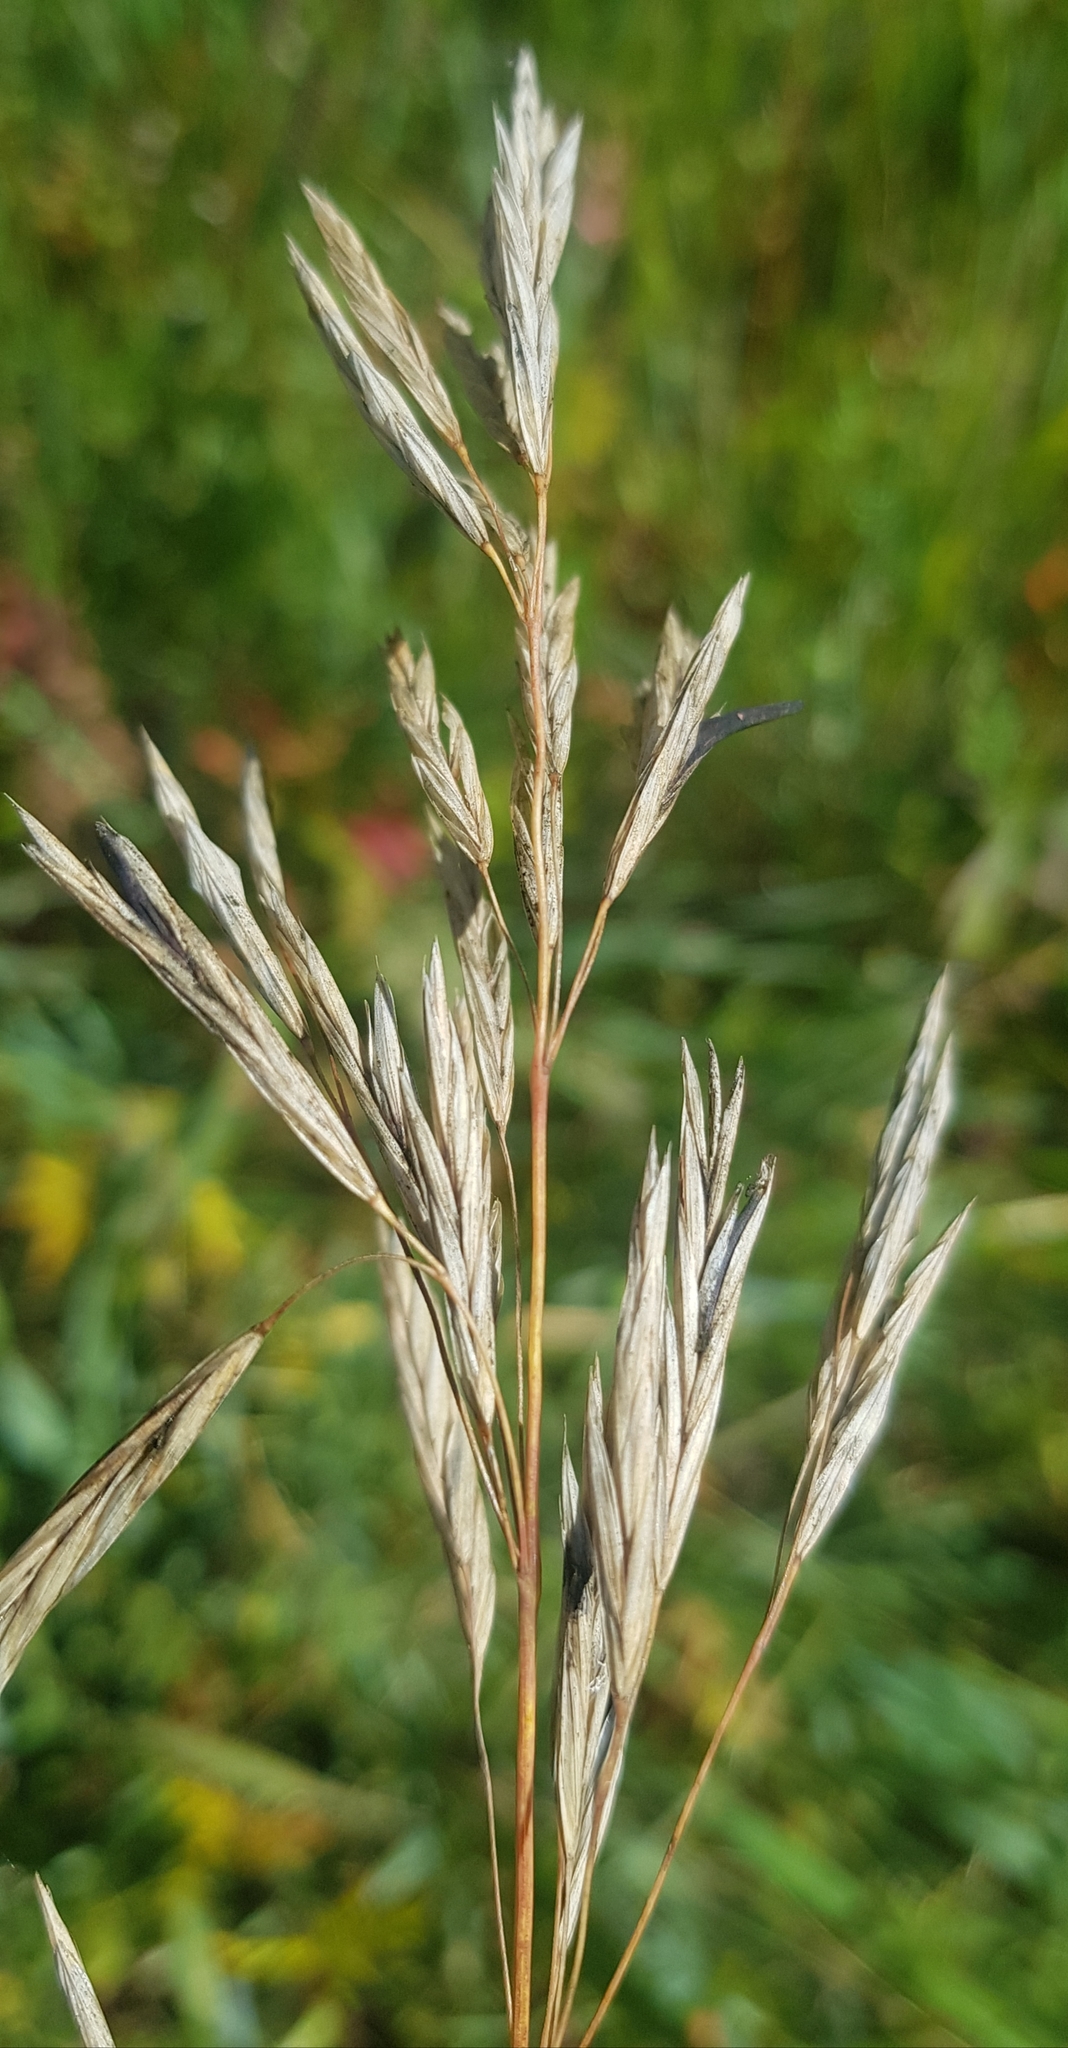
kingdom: Plantae
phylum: Tracheophyta
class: Liliopsida
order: Poales
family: Poaceae
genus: Bromus
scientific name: Bromus inermis
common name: Smooth brome
